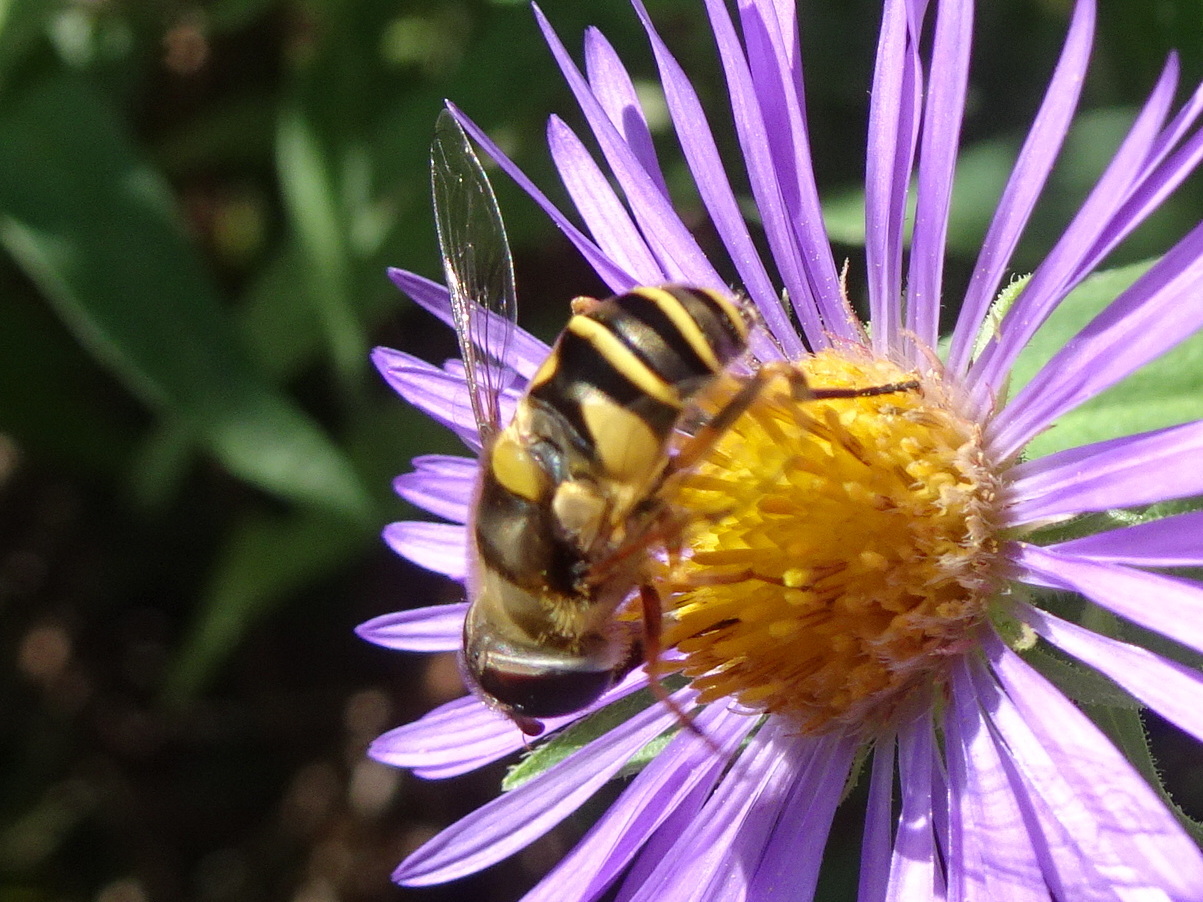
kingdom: Animalia
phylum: Arthropoda
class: Insecta
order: Diptera
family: Syrphidae
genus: Eristalis
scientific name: Eristalis transversa
